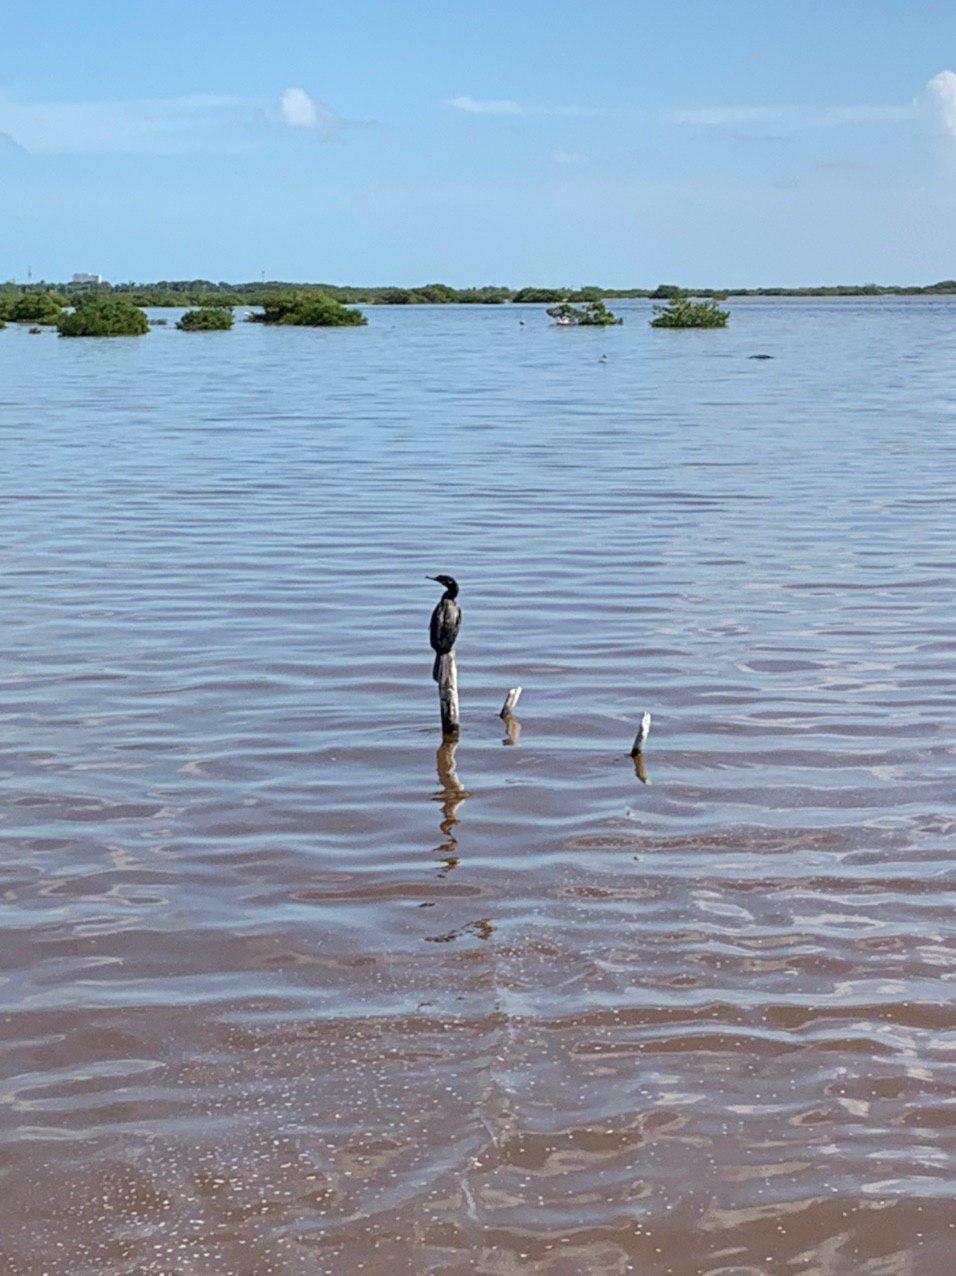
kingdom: Animalia
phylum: Chordata
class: Aves
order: Suliformes
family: Phalacrocoracidae
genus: Phalacrocorax
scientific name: Phalacrocorax brasilianus
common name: Neotropic cormorant
